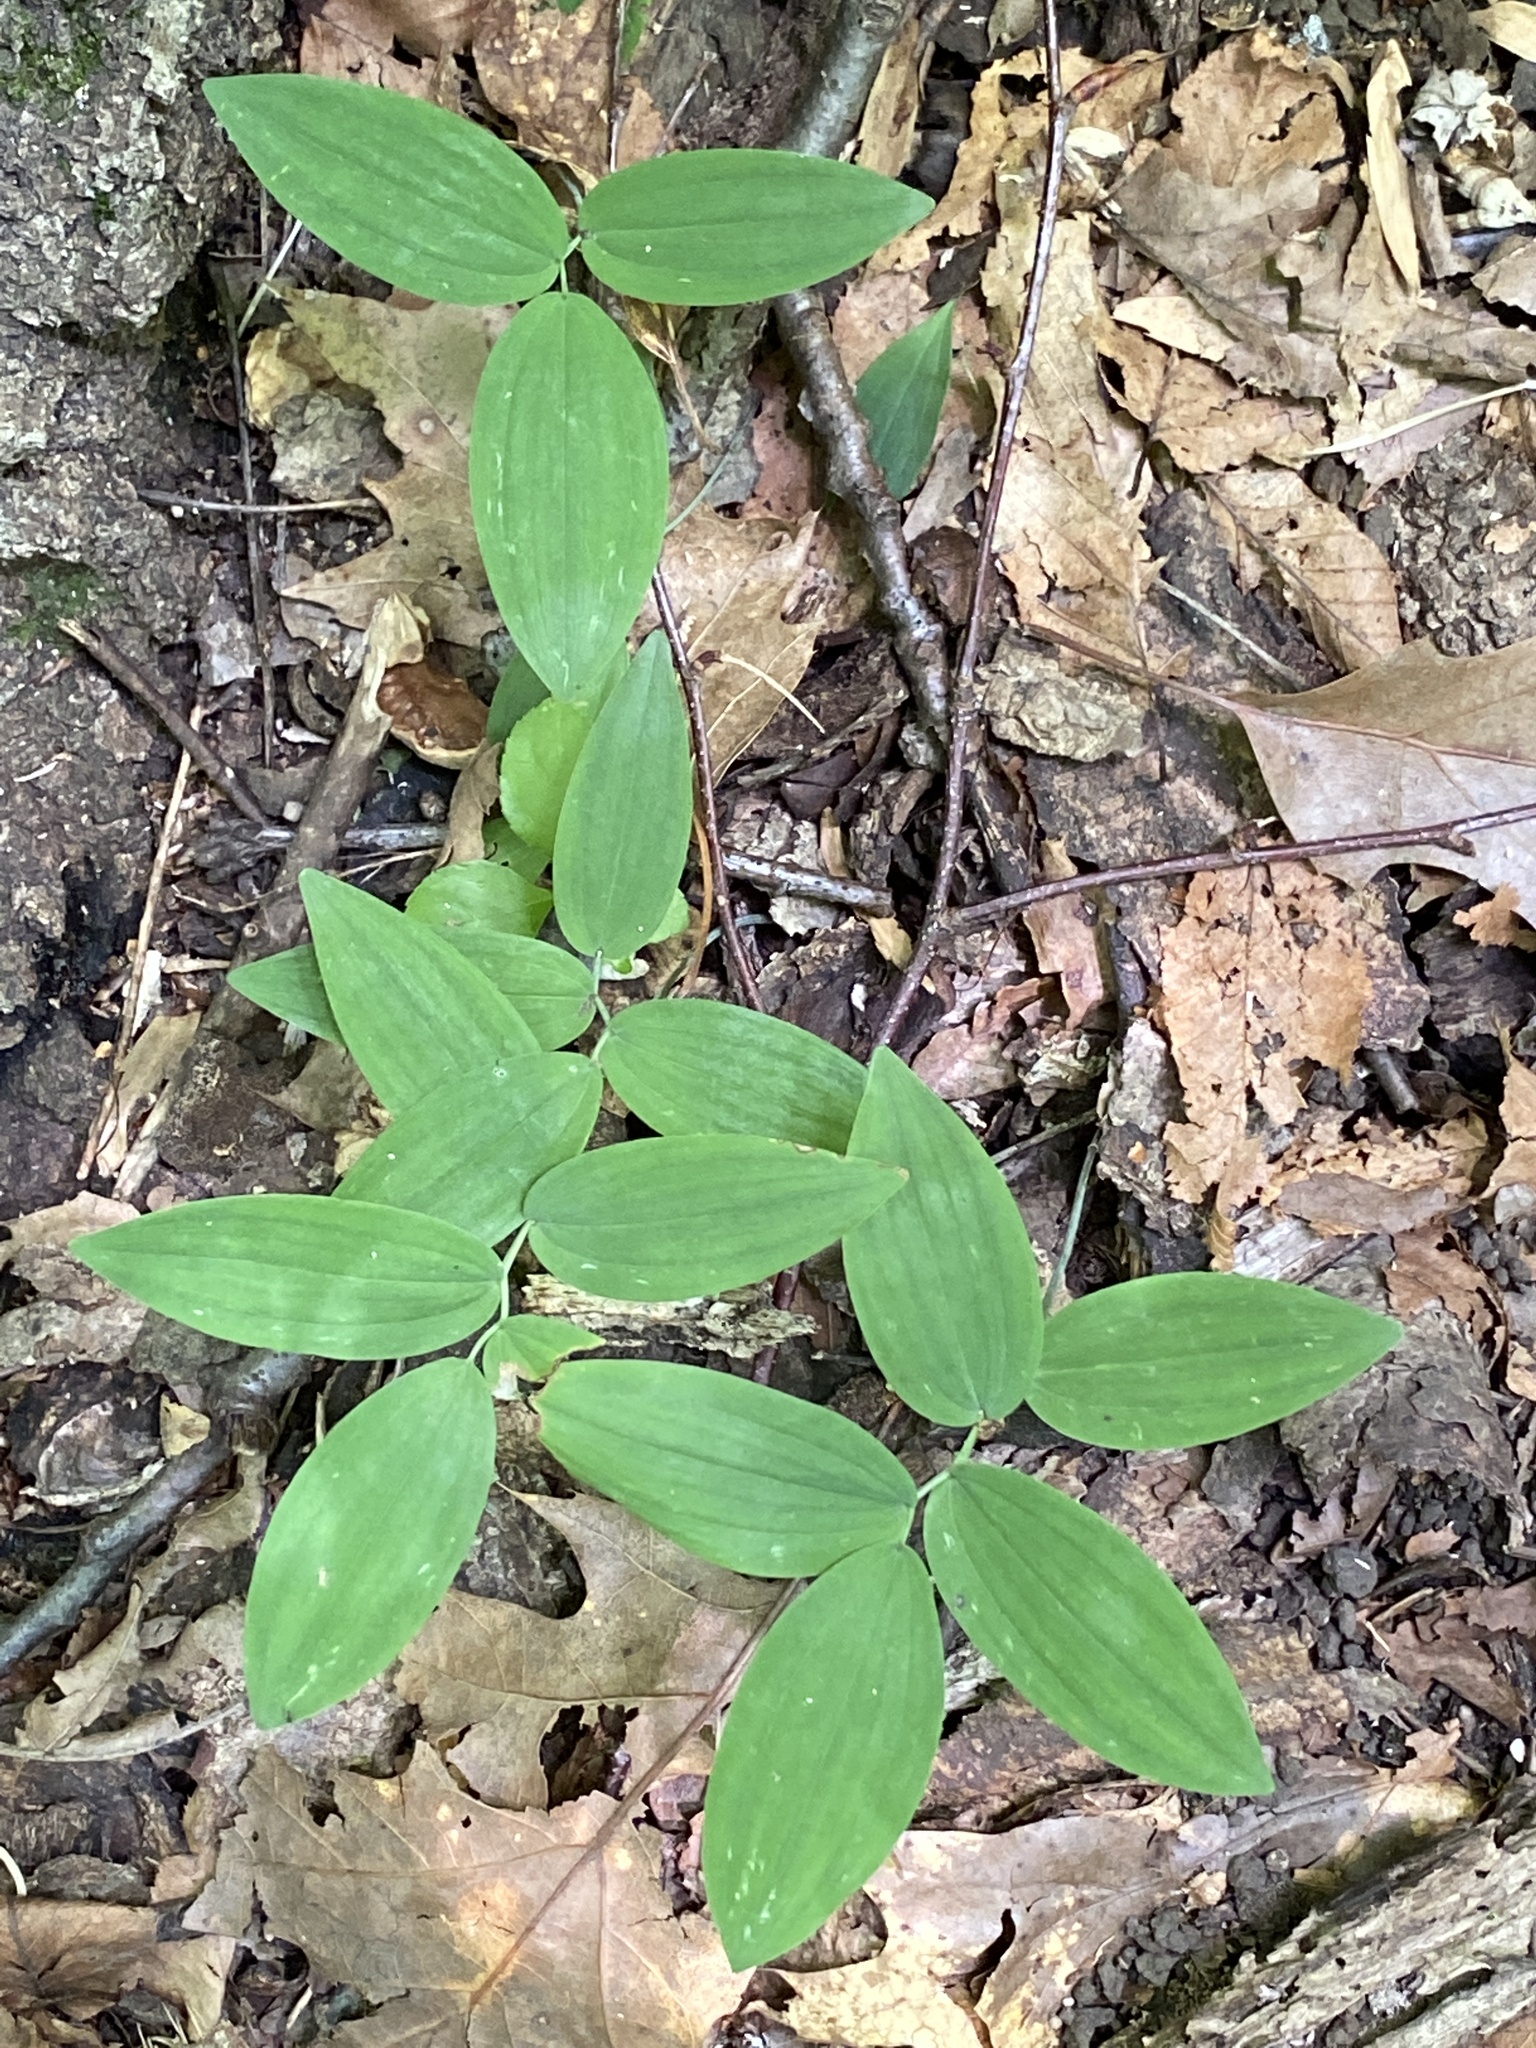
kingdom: Plantae
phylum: Tracheophyta
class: Liliopsida
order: Asparagales
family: Asparagaceae
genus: Polygonatum
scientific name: Polygonatum pubescens
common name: Downy solomon's seal
